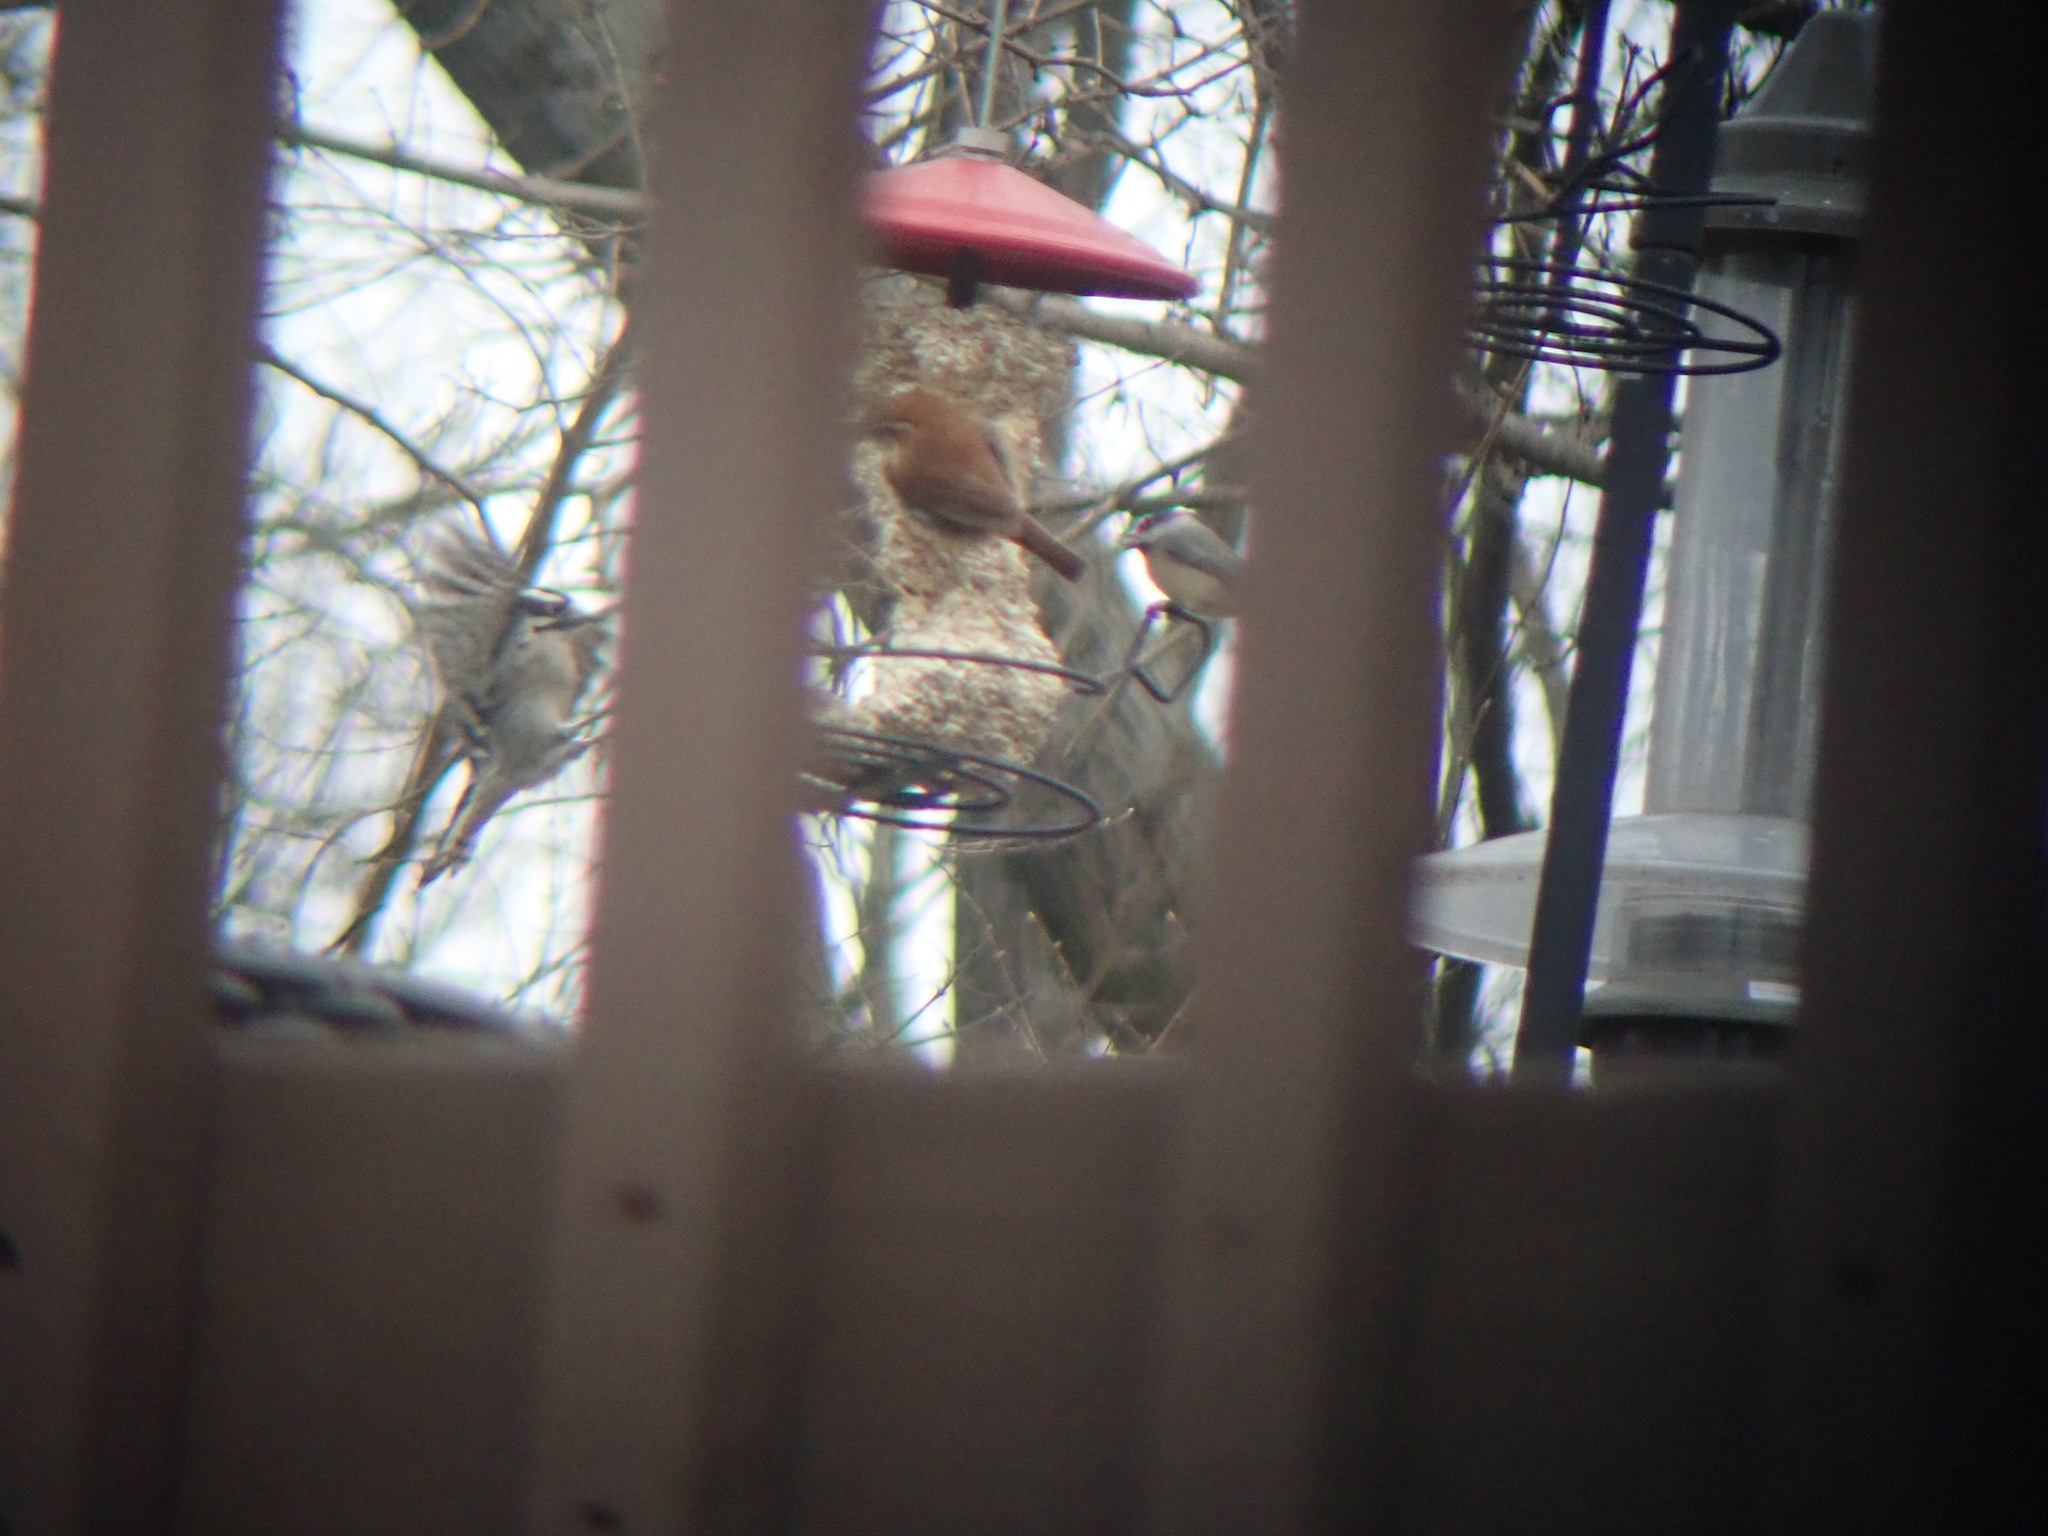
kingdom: Animalia
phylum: Chordata
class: Aves
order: Piciformes
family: Picidae
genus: Dryobates
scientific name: Dryobates pubescens
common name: Downy woodpecker
